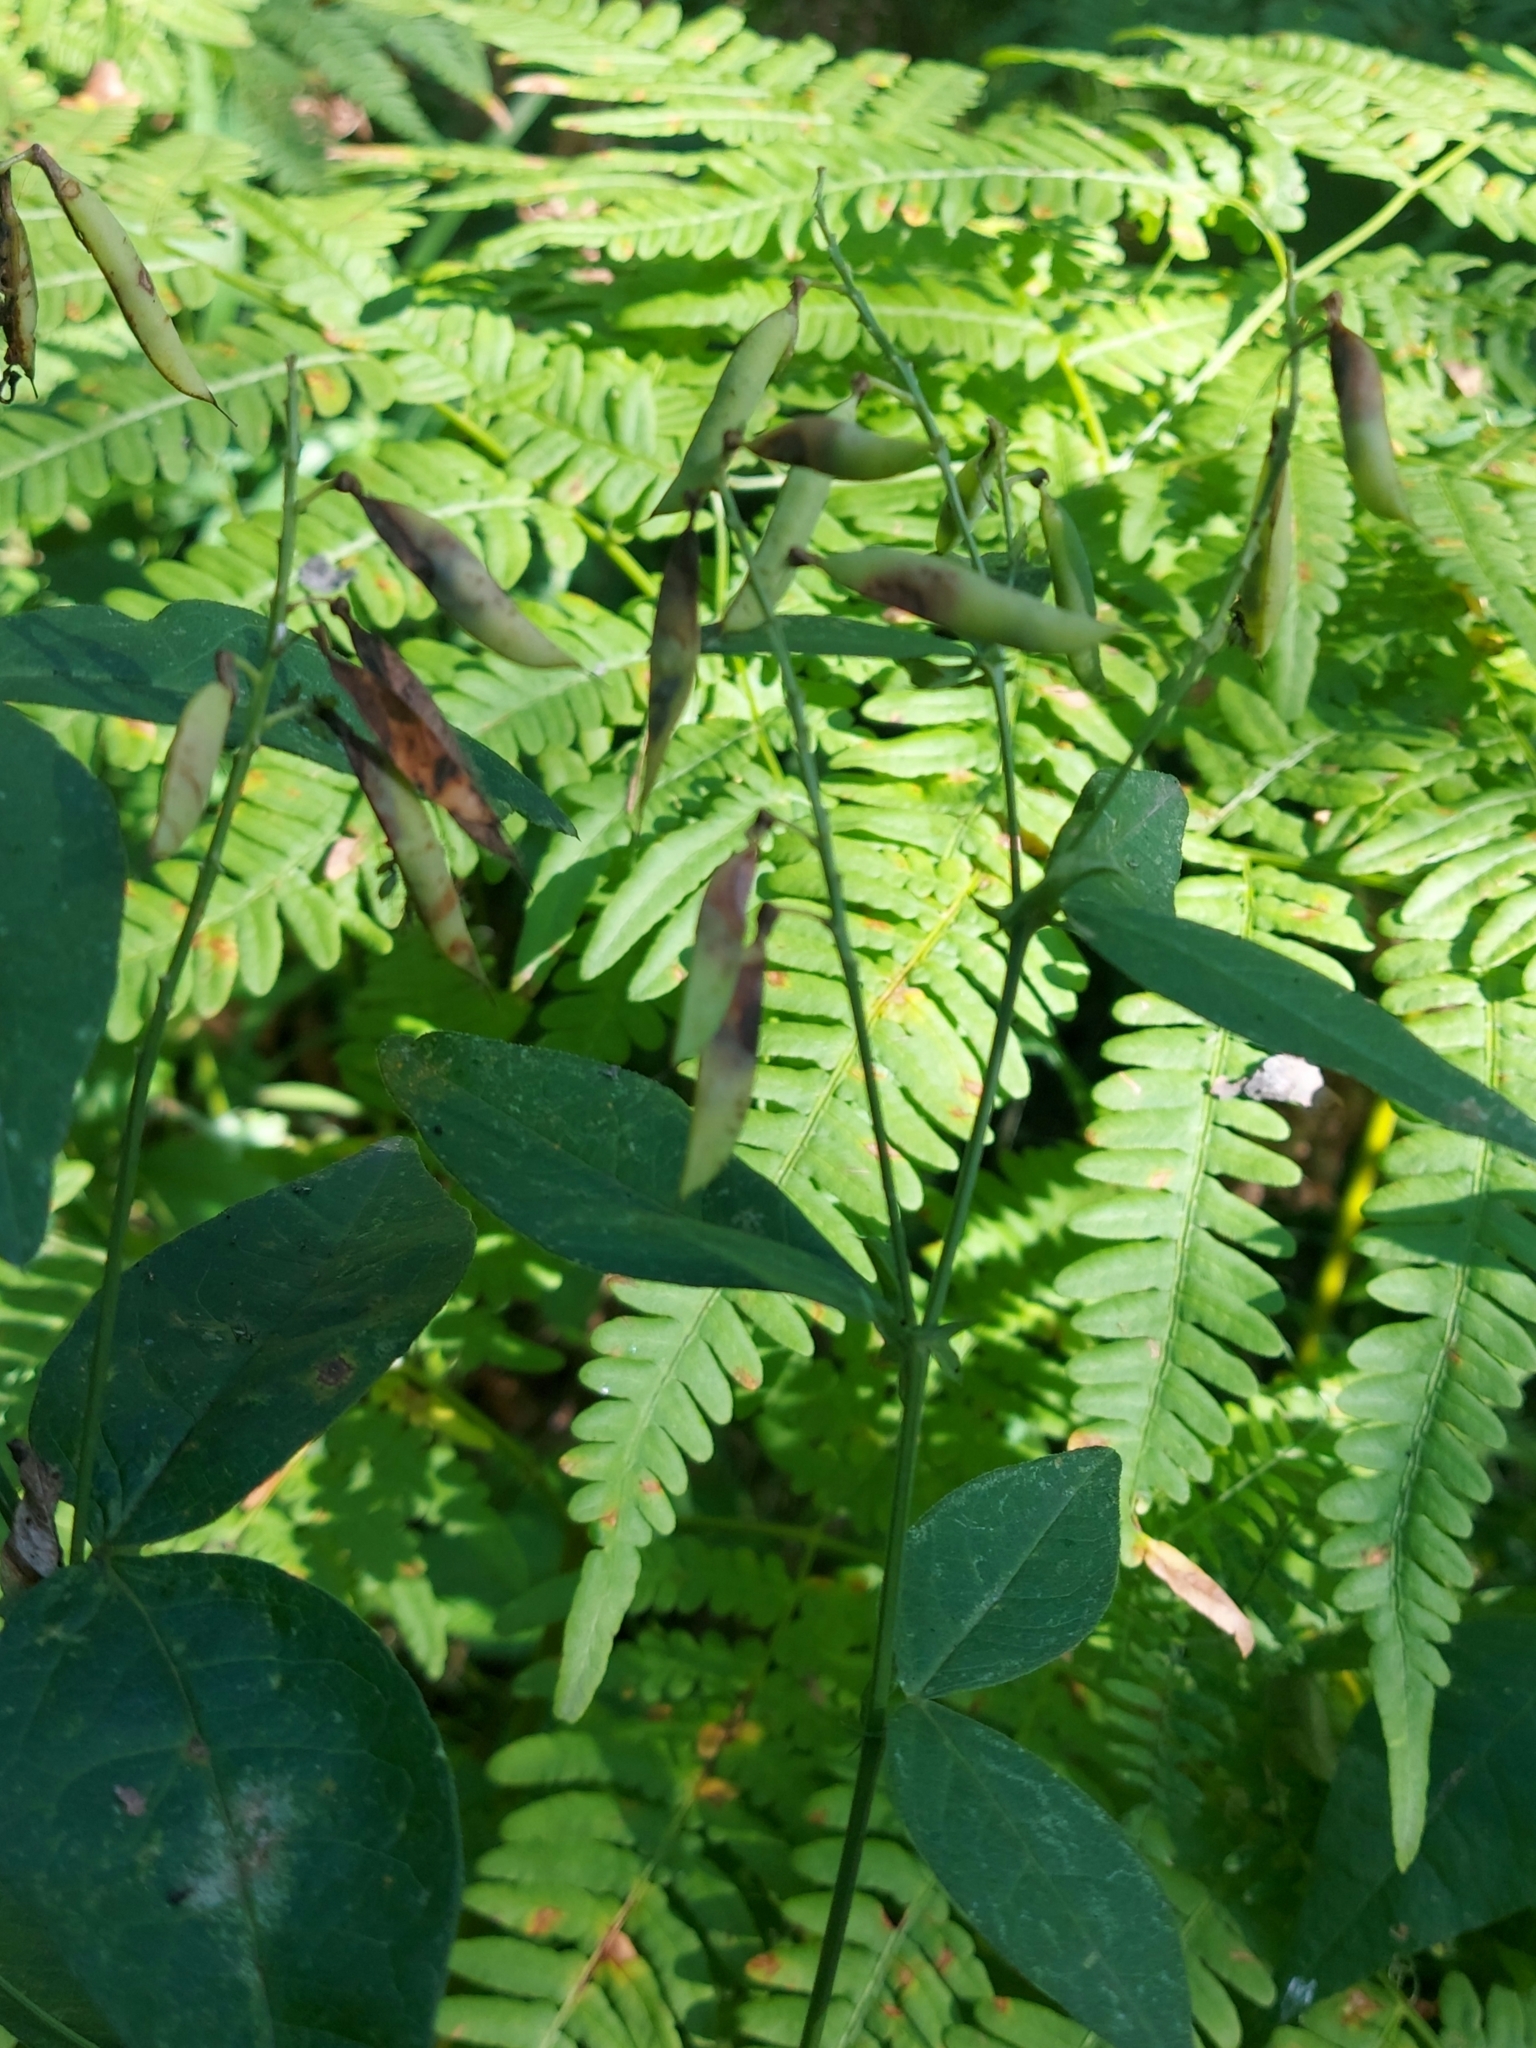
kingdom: Plantae
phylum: Tracheophyta
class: Magnoliopsida
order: Fabales
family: Fabaceae
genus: Vicia
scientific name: Vicia unijuga
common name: Two-leaf vetch
